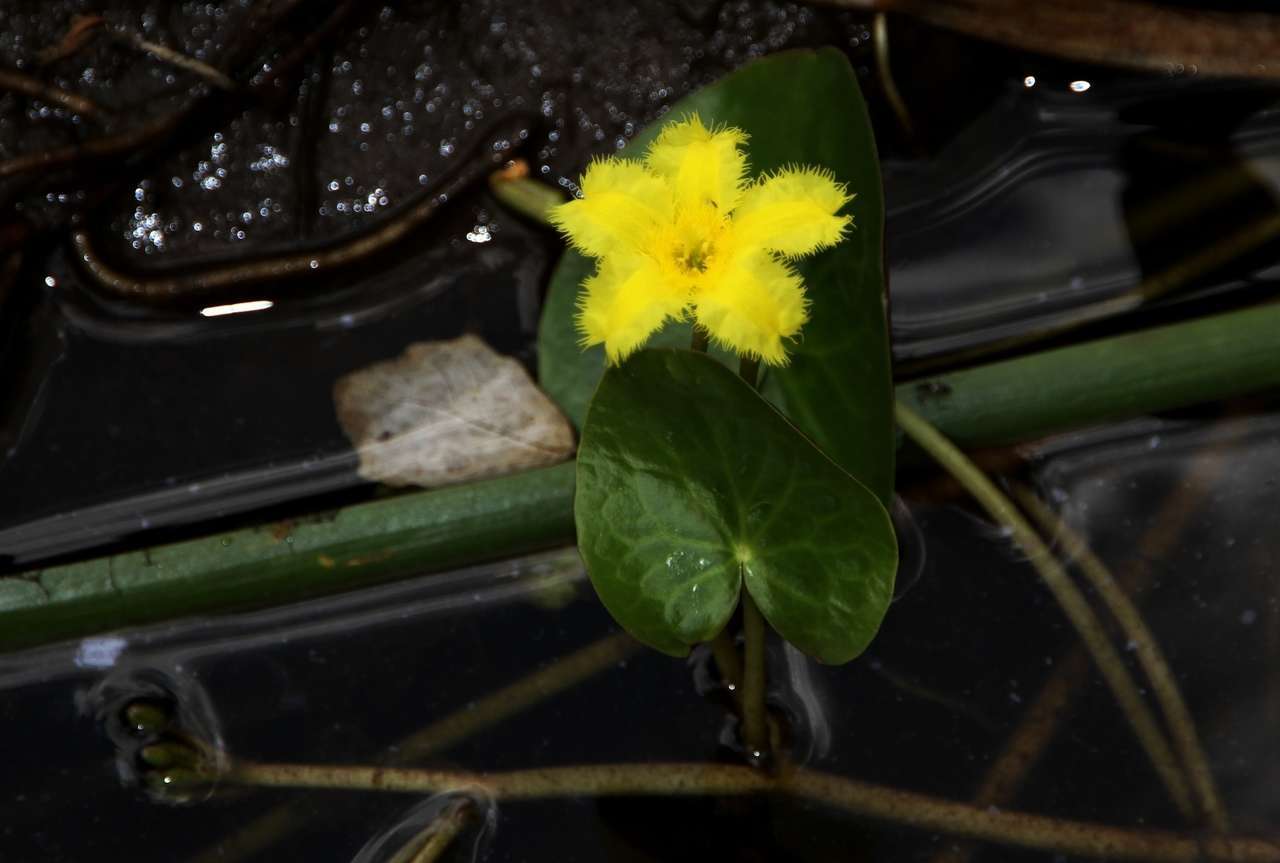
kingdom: Plantae
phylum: Tracheophyta
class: Magnoliopsida
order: Asterales
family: Menyanthaceae
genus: Ornduffia
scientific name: Ornduffia reniformis
